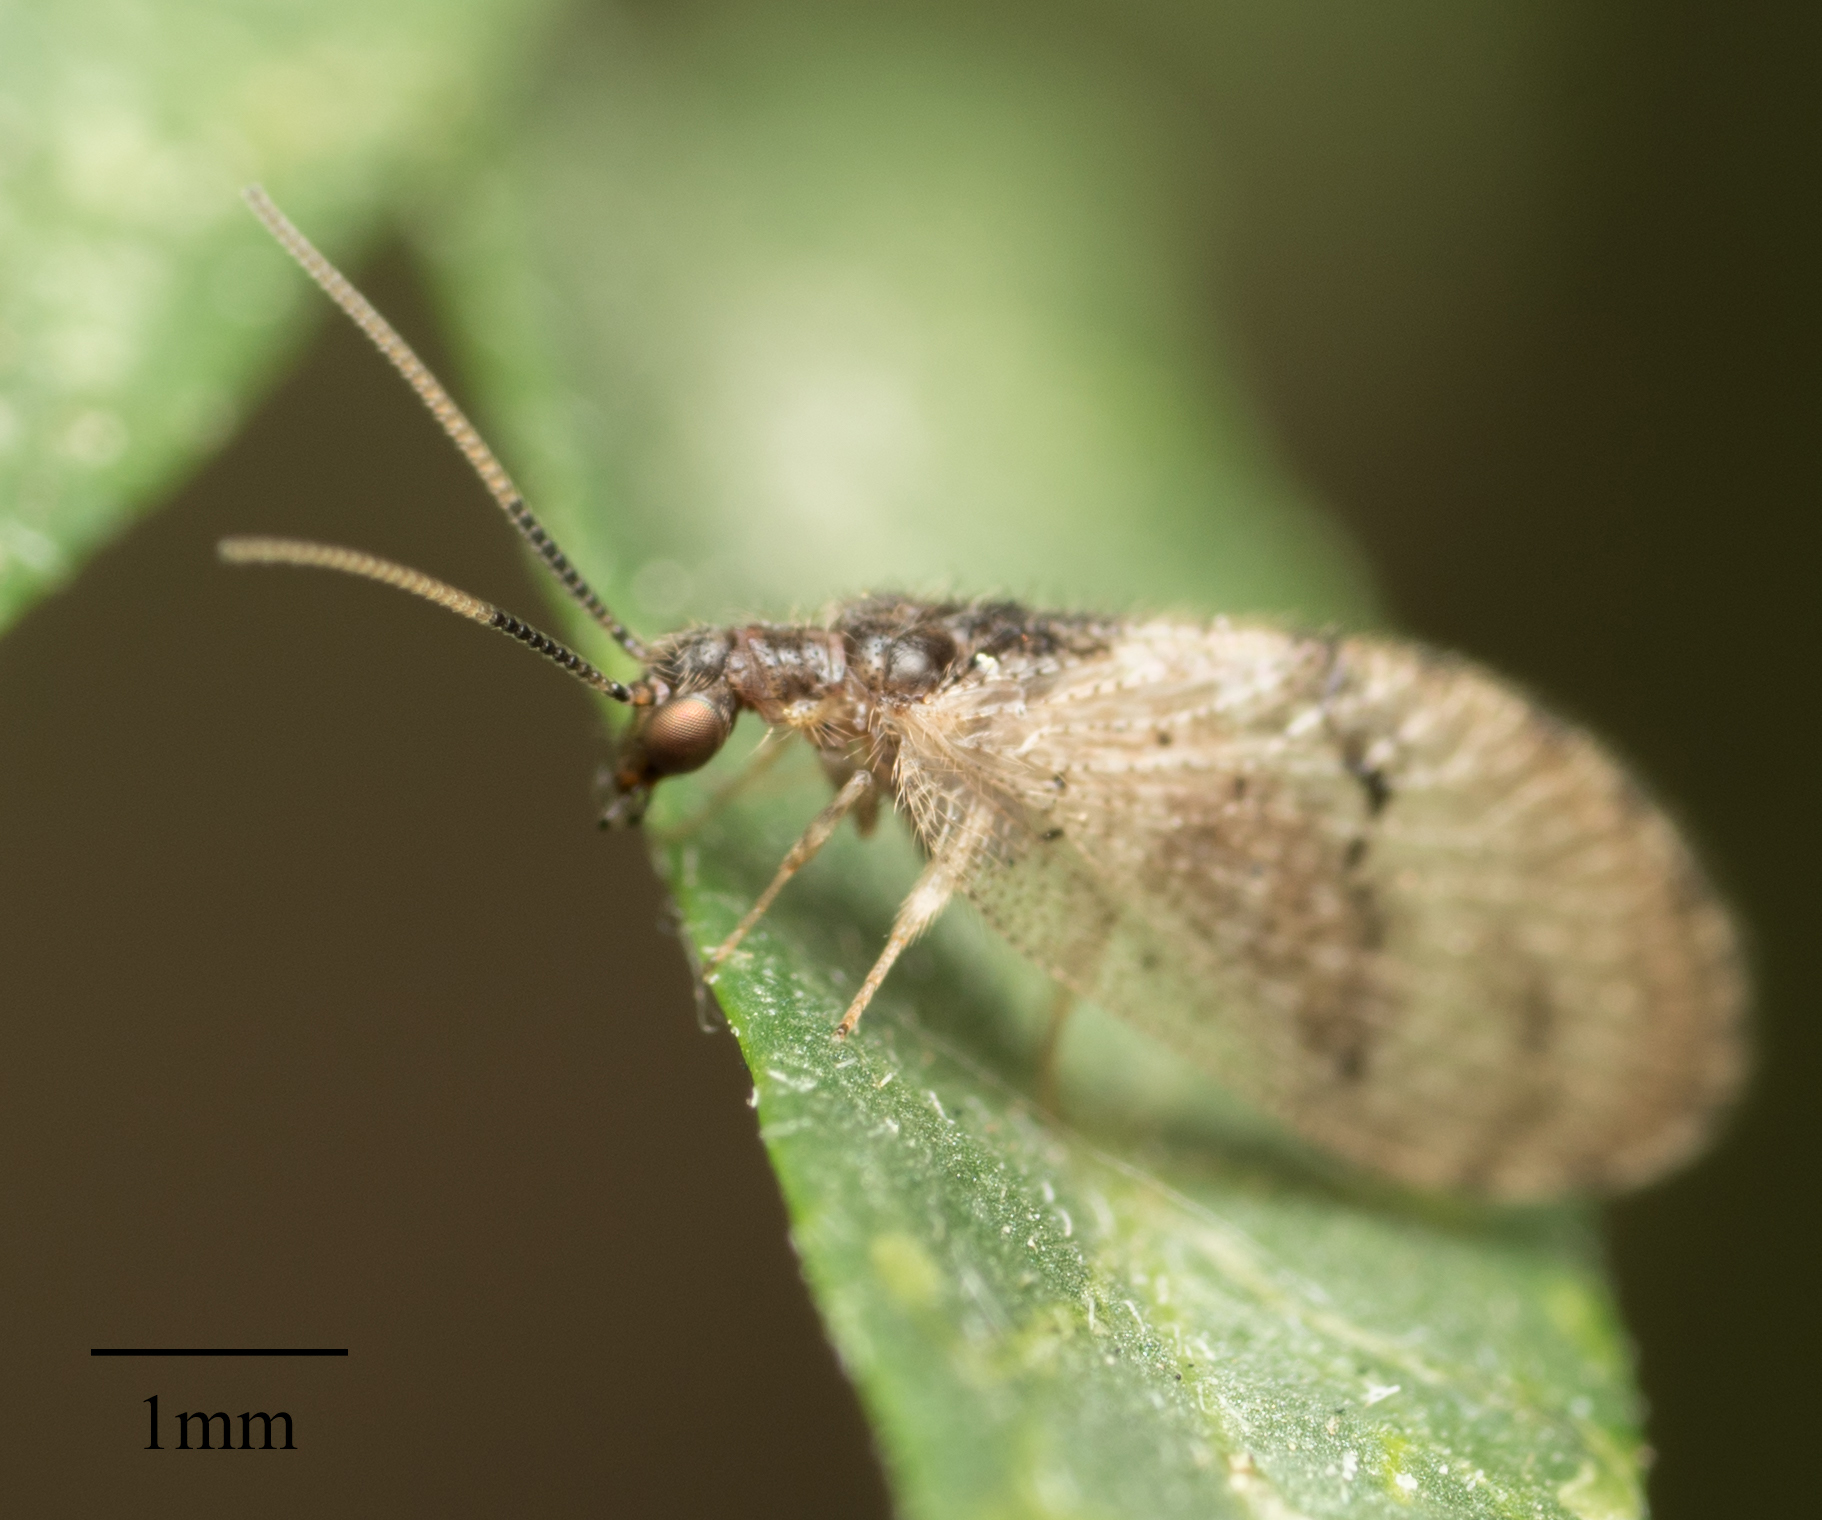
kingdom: Animalia
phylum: Arthropoda
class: Insecta
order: Neuroptera
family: Hemerobiidae
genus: Sympherobius
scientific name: Sympherobius barberi
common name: Brown lacewing
